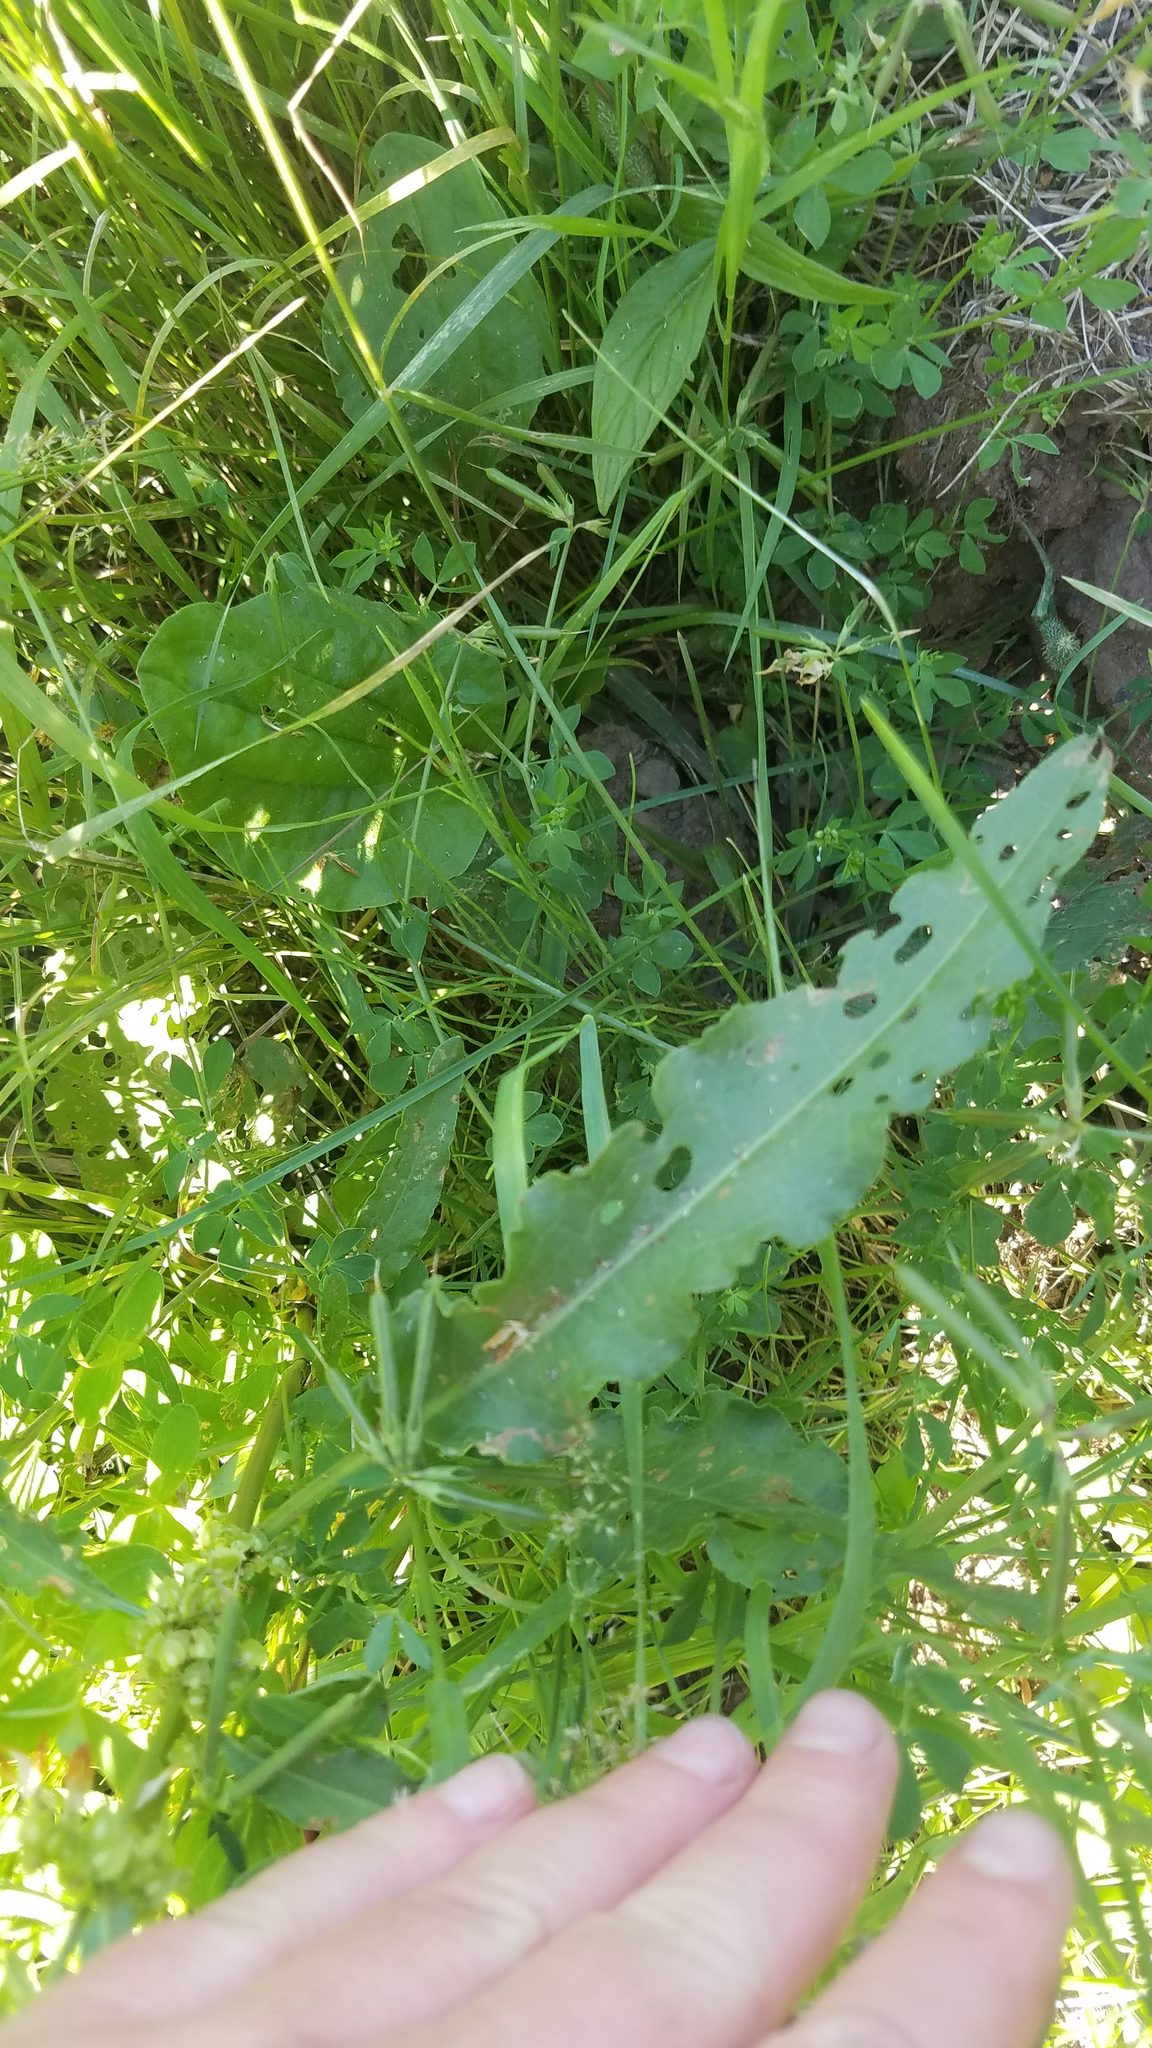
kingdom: Plantae
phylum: Tracheophyta
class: Magnoliopsida
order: Caryophyllales
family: Polygonaceae
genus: Rumex
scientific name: Rumex crispus
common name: Curled dock
